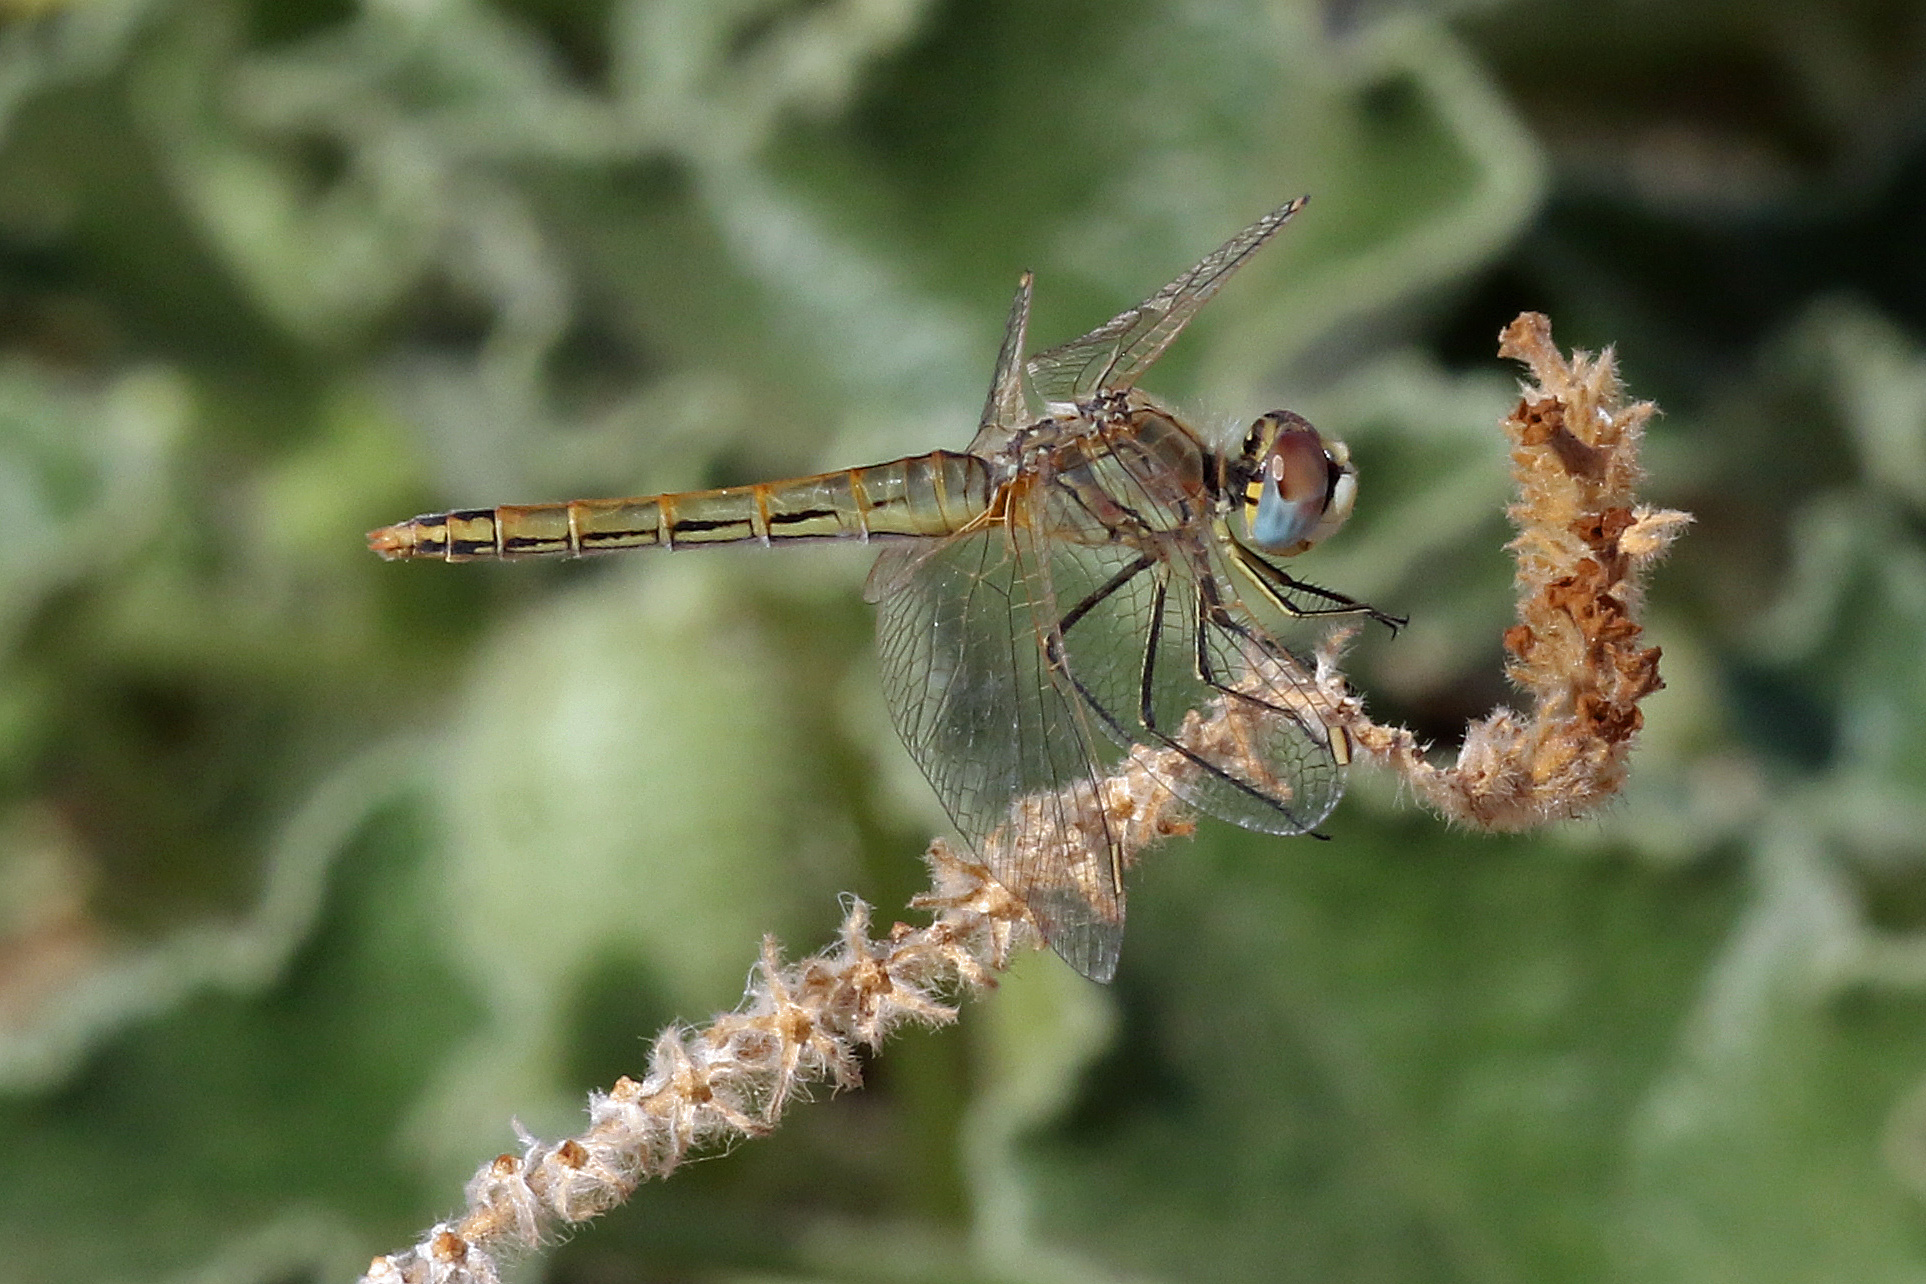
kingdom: Animalia
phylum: Arthropoda
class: Insecta
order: Odonata
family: Libellulidae
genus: Sympetrum
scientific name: Sympetrum fonscolombii
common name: Red-veined darter
